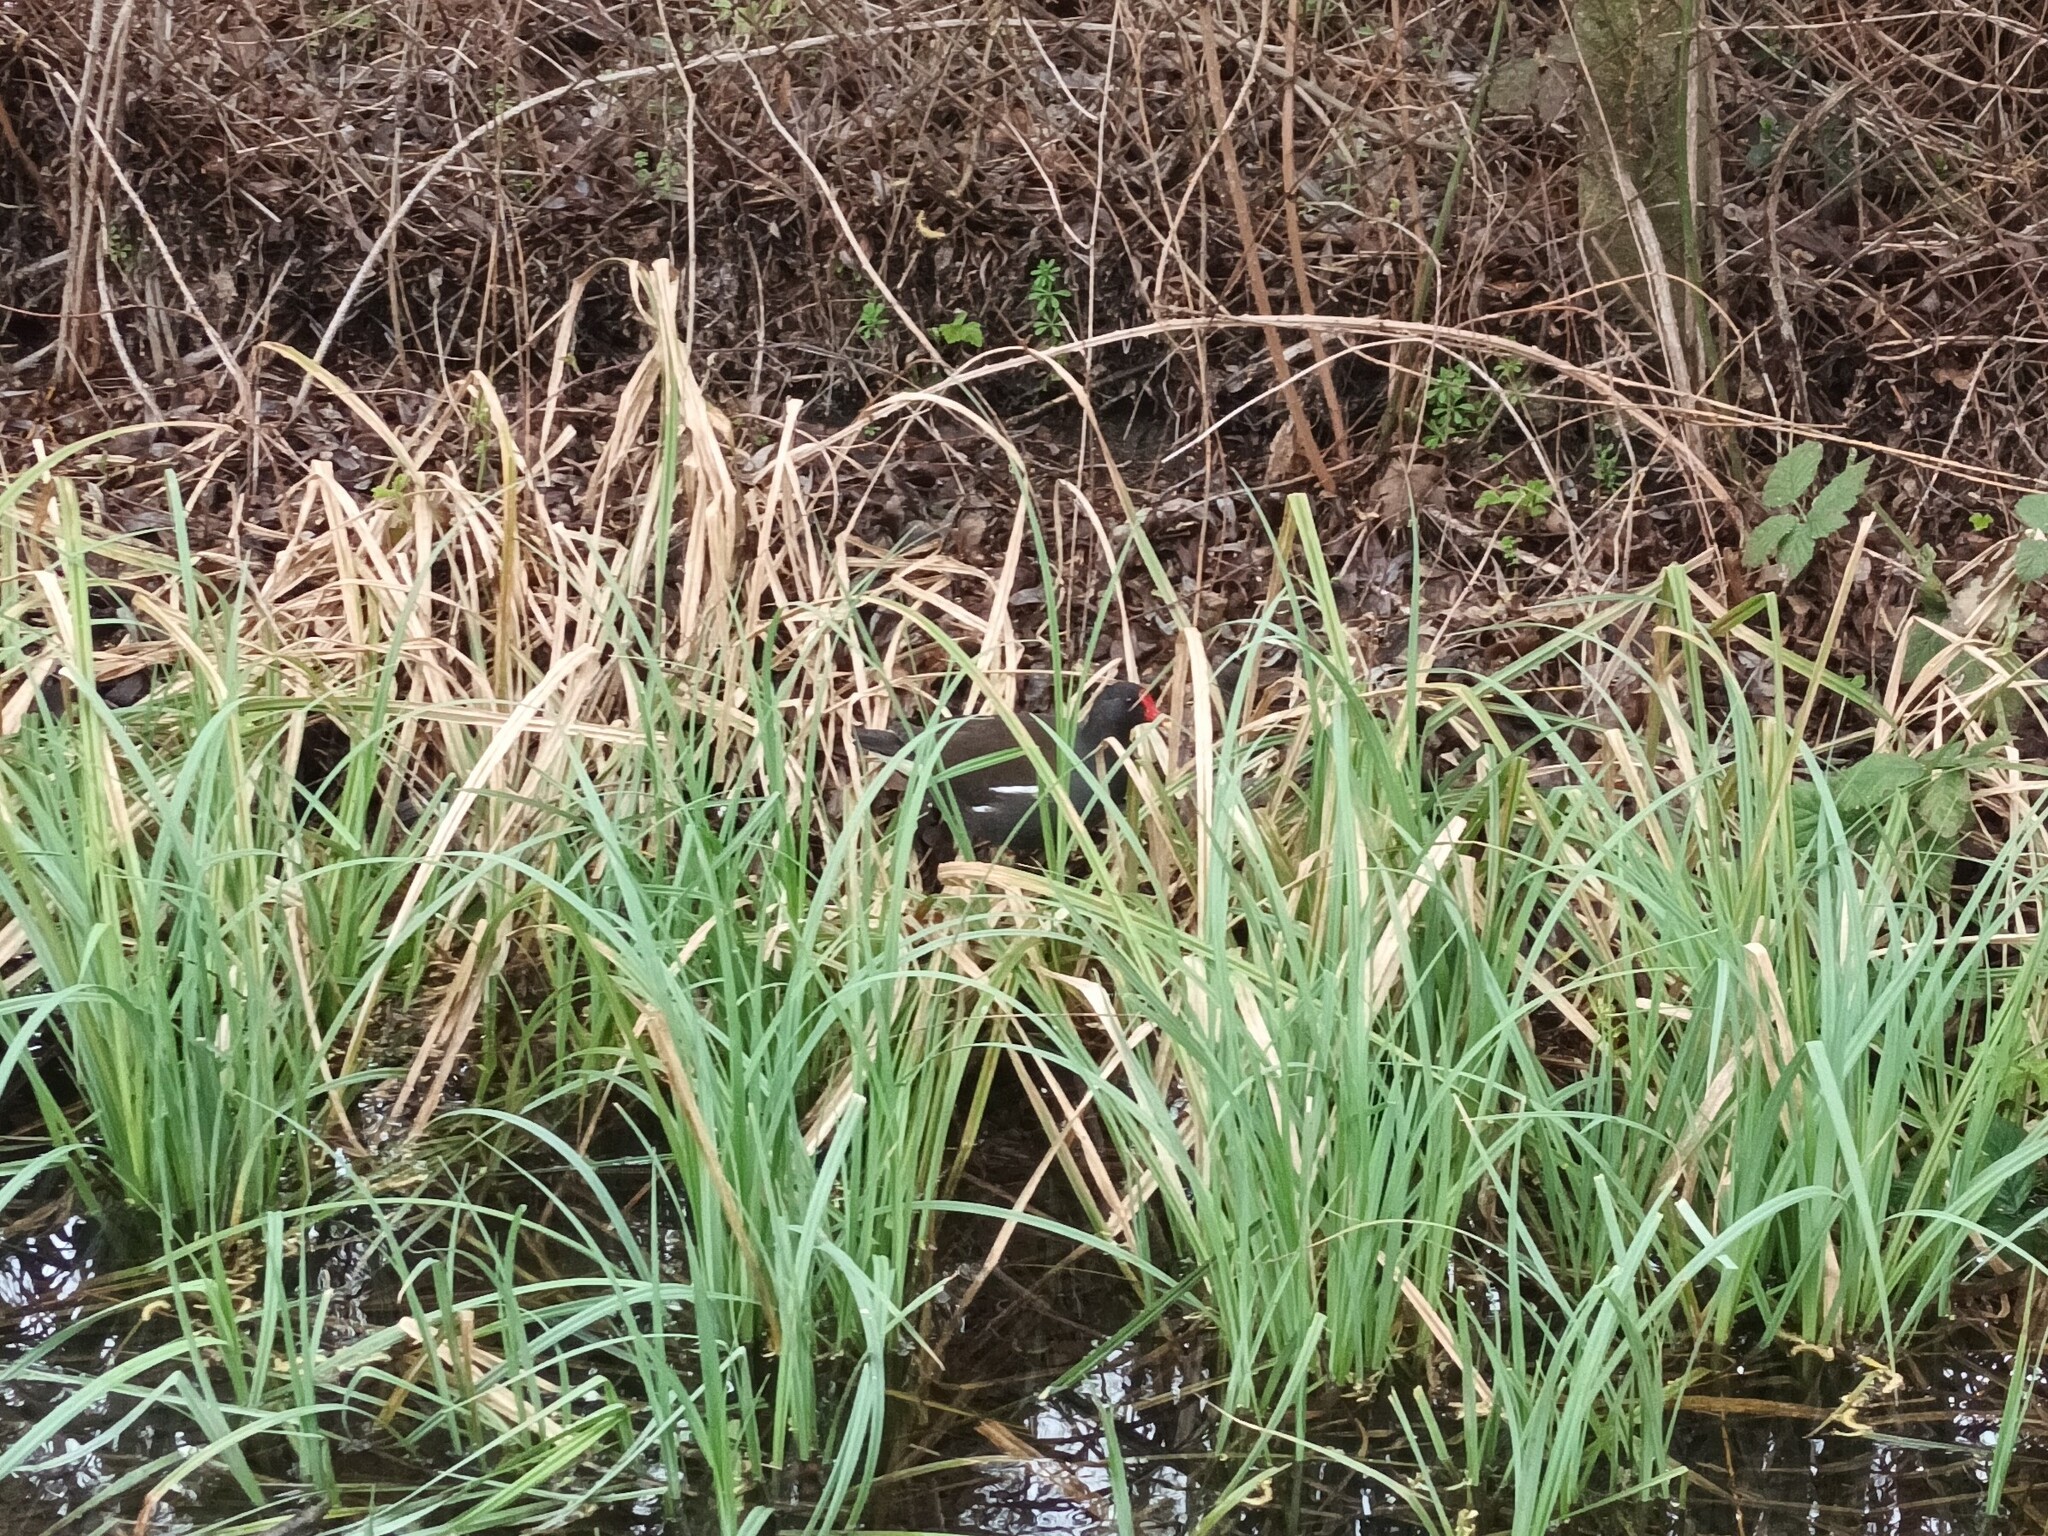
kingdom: Animalia
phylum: Chordata
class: Aves
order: Gruiformes
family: Rallidae
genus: Gallinula
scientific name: Gallinula chloropus
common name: Common moorhen
